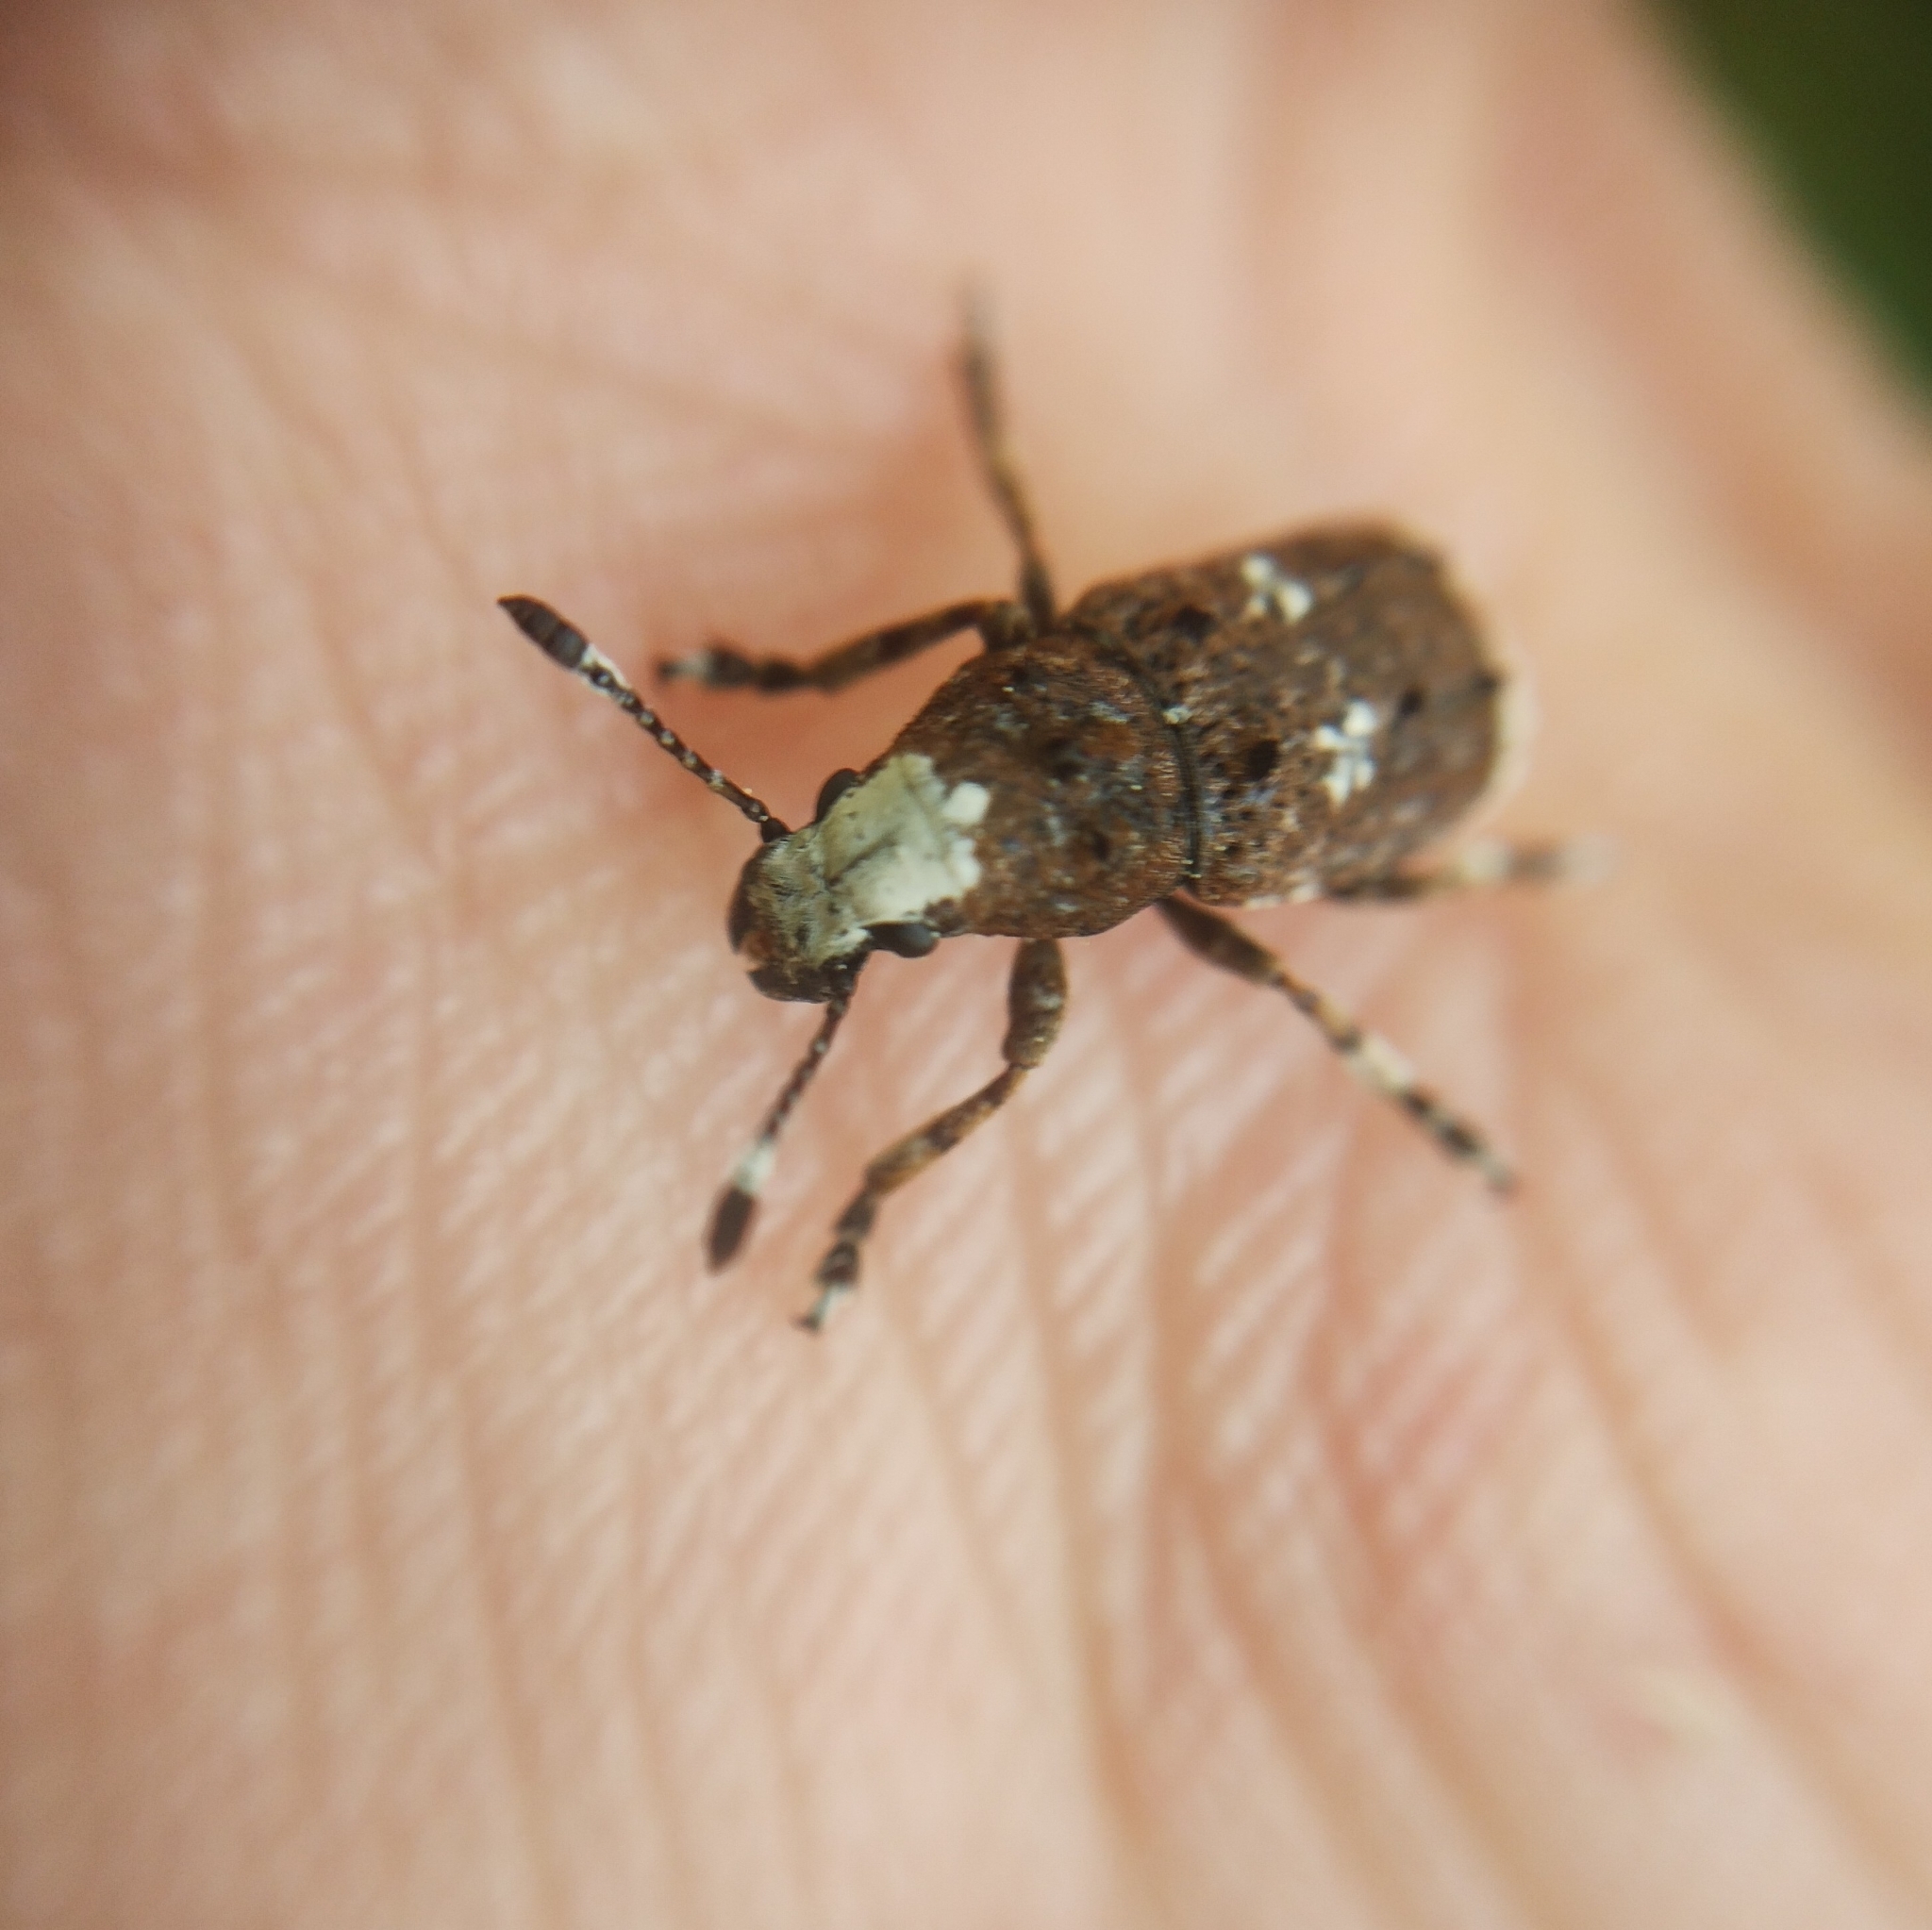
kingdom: Animalia
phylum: Arthropoda
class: Insecta
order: Coleoptera
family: Anthribidae
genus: Platystomos
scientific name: Platystomos albinus
